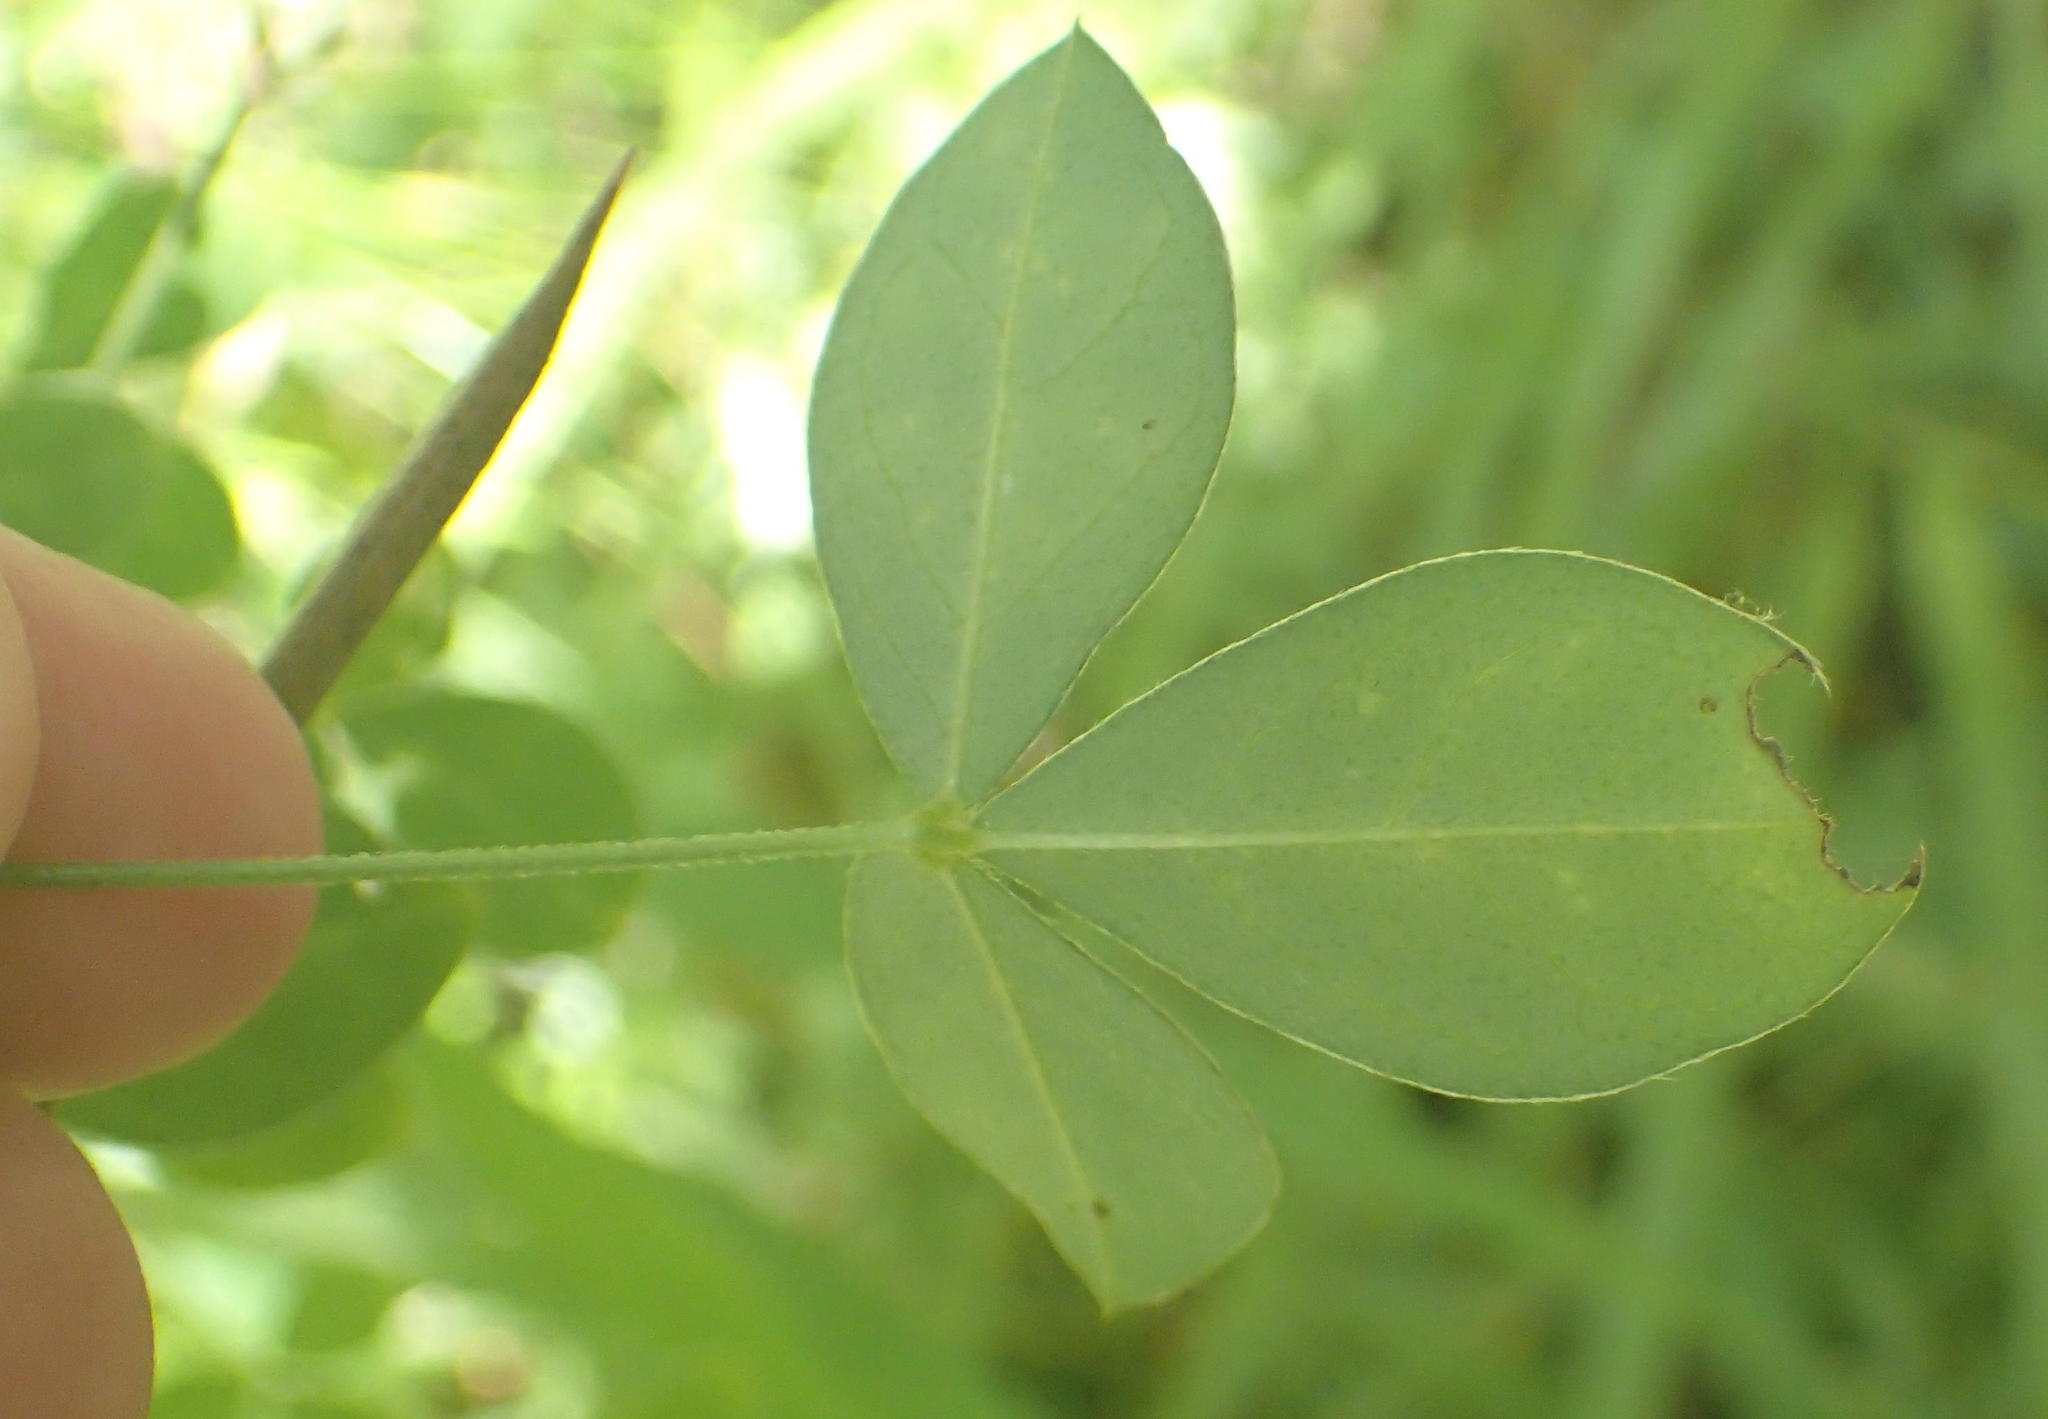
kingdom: Plantae
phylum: Tracheophyta
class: Magnoliopsida
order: Fabales
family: Fabaceae
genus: Argyrolobium
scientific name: Argyrolobium tomentosum
